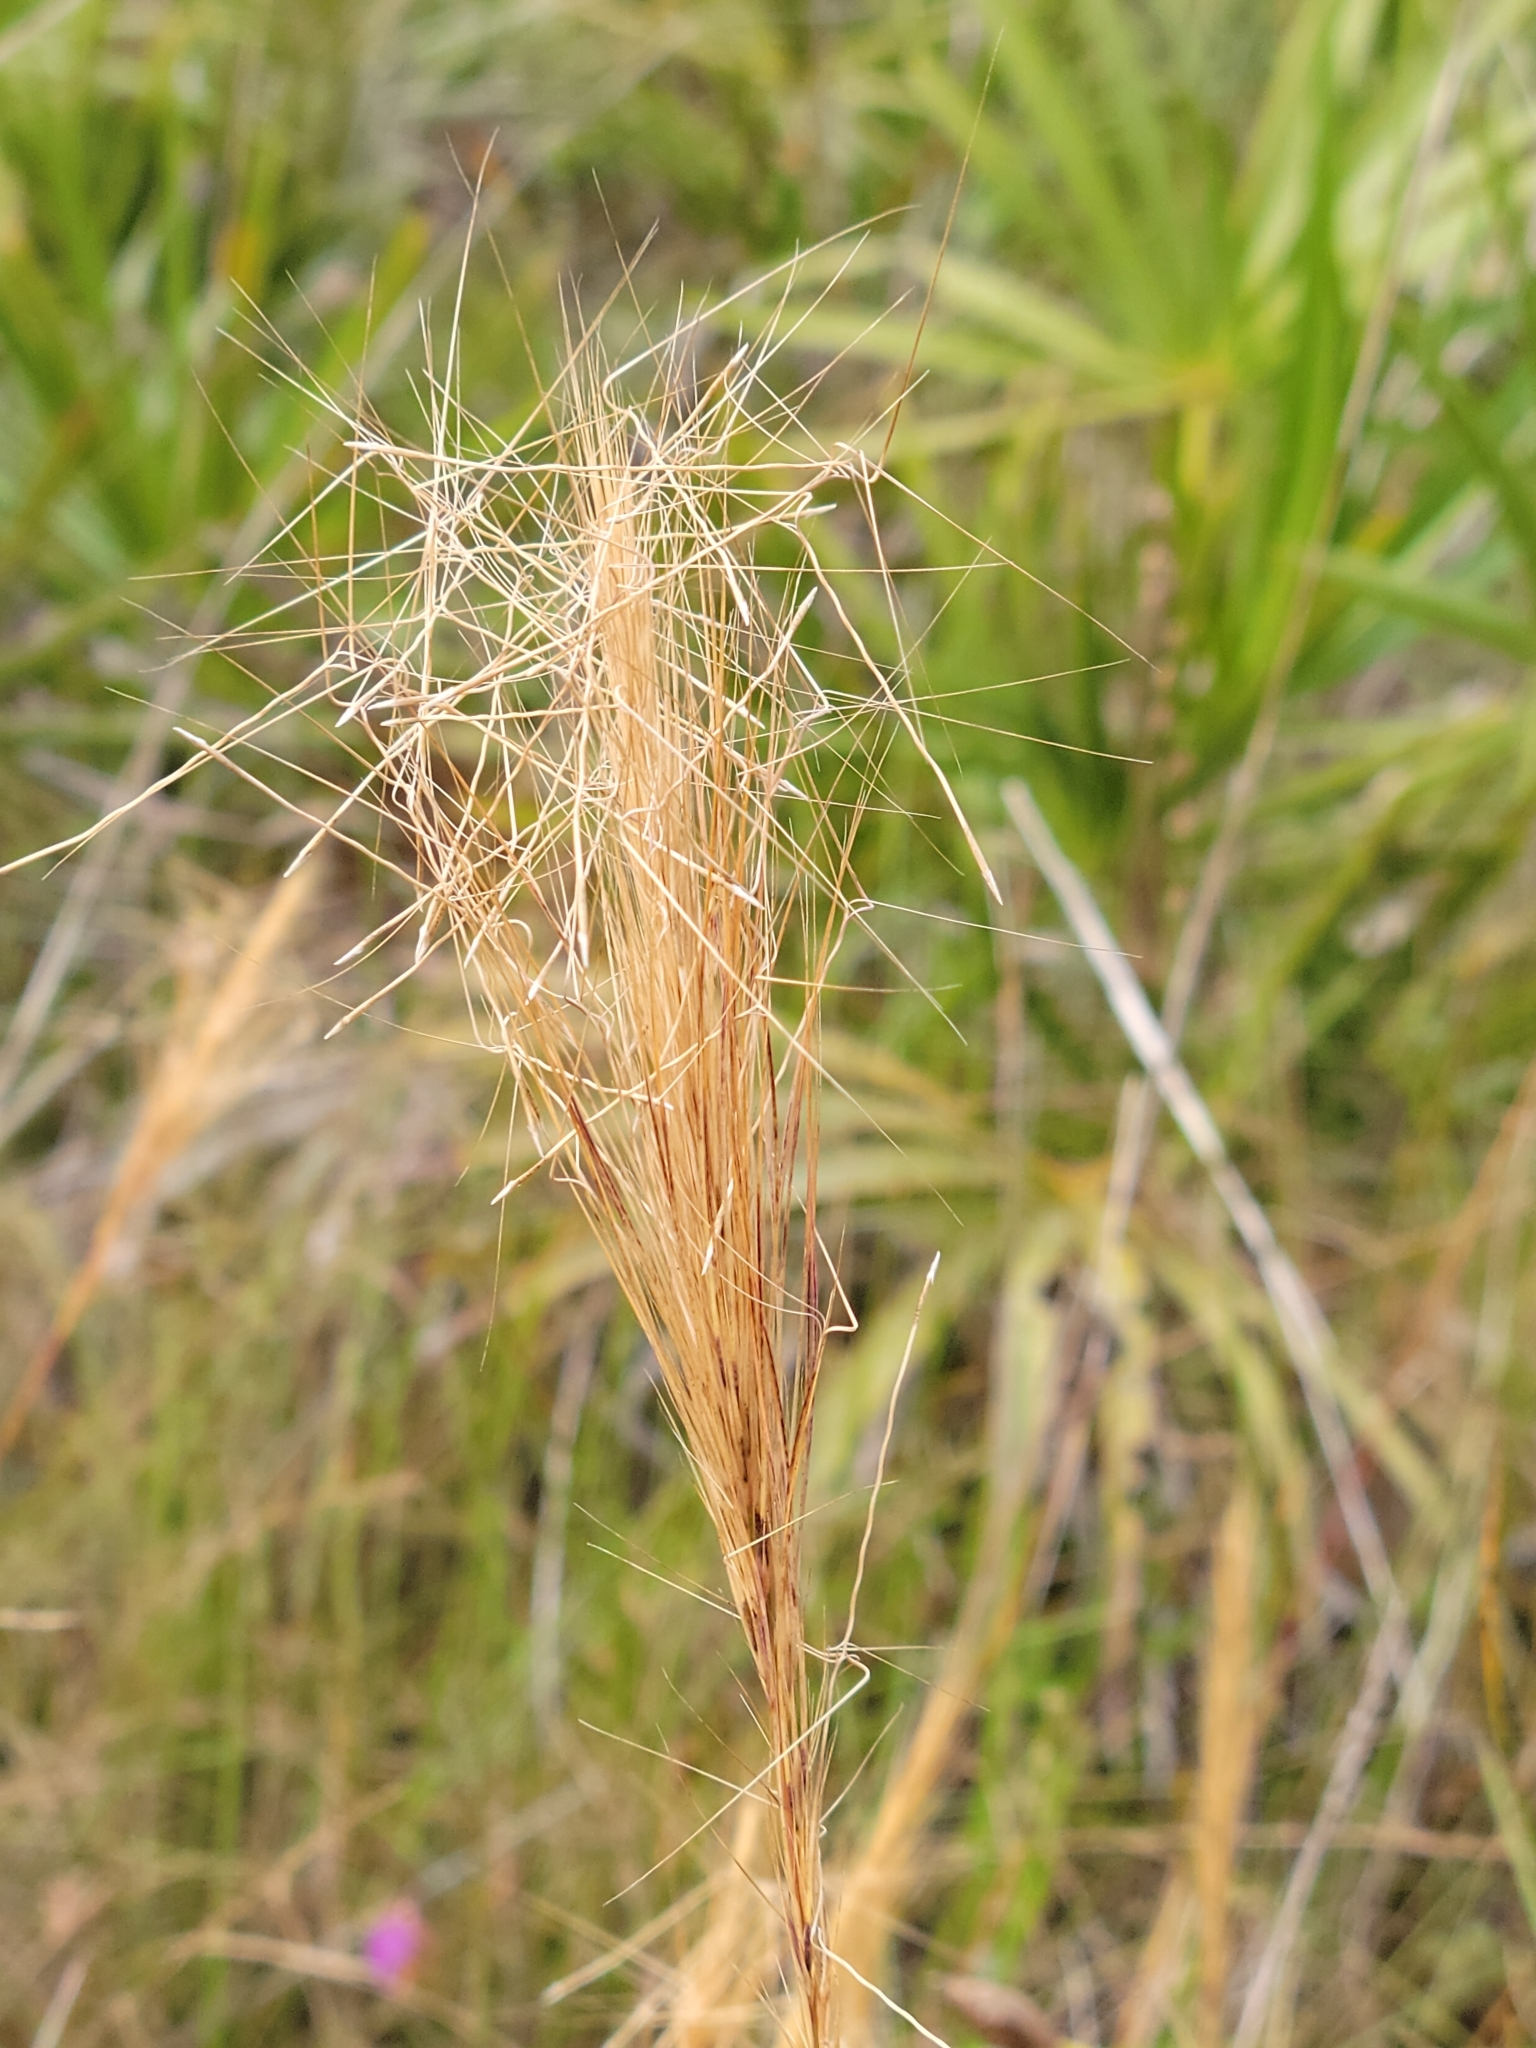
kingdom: Plantae
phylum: Tracheophyta
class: Liliopsida
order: Poales
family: Poaceae
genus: Aristida
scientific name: Aristida spiciformis
